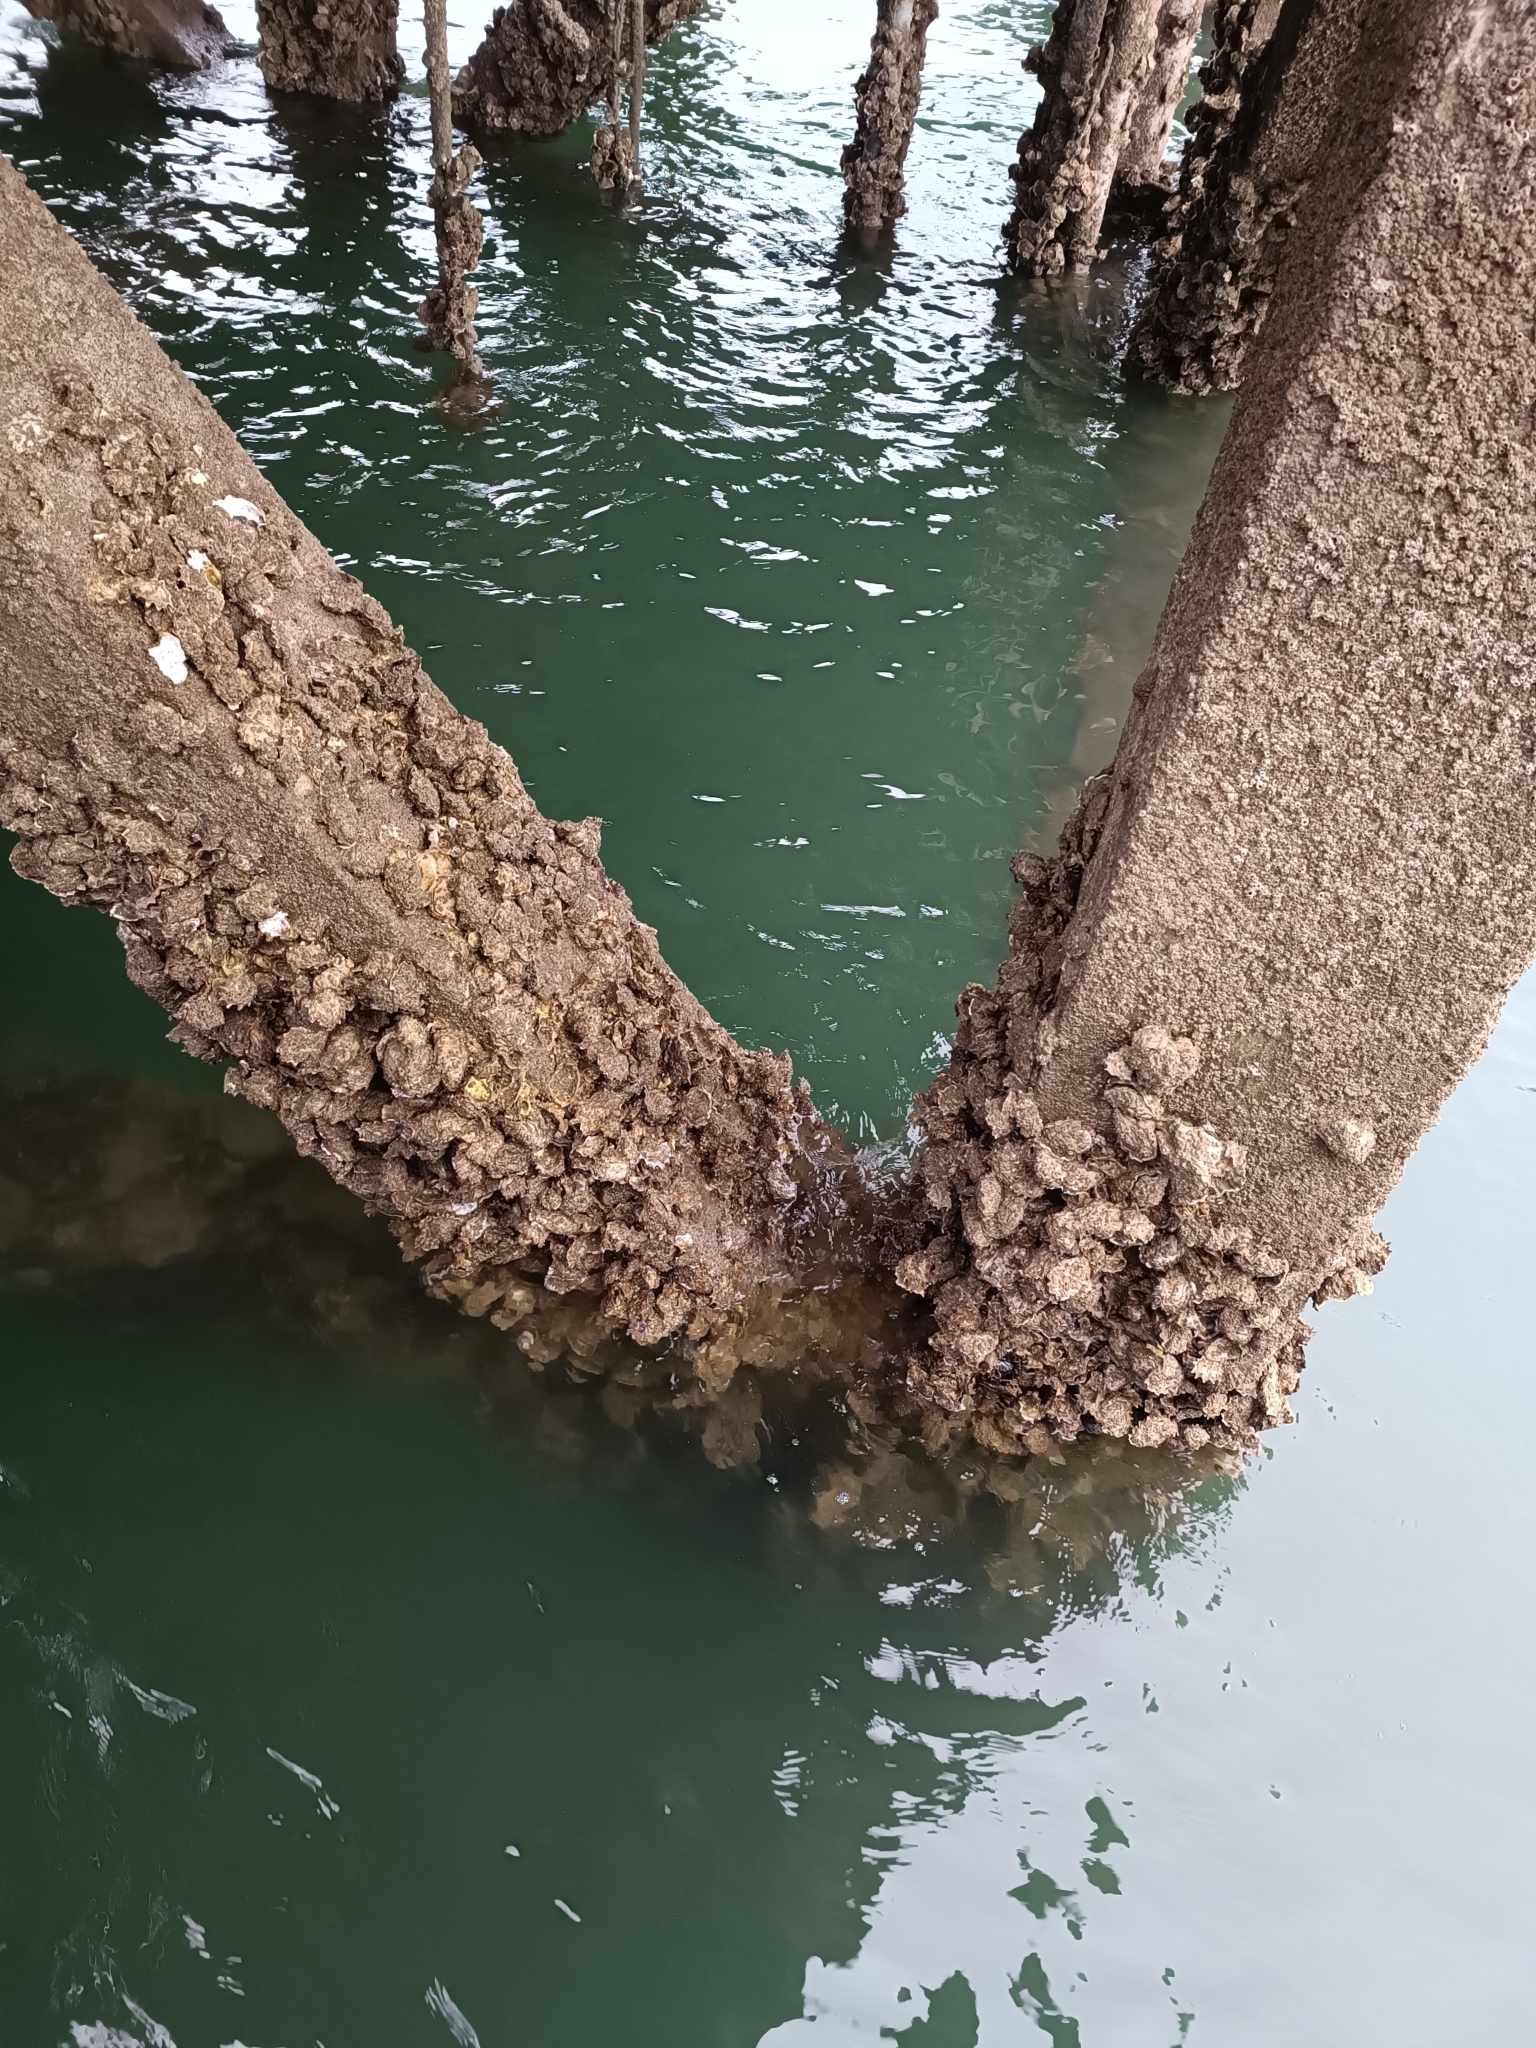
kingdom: Animalia
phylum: Mollusca
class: Bivalvia
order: Ostreida
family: Ostreidae
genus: Magallana
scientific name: Magallana gigas
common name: Pacific oyster
